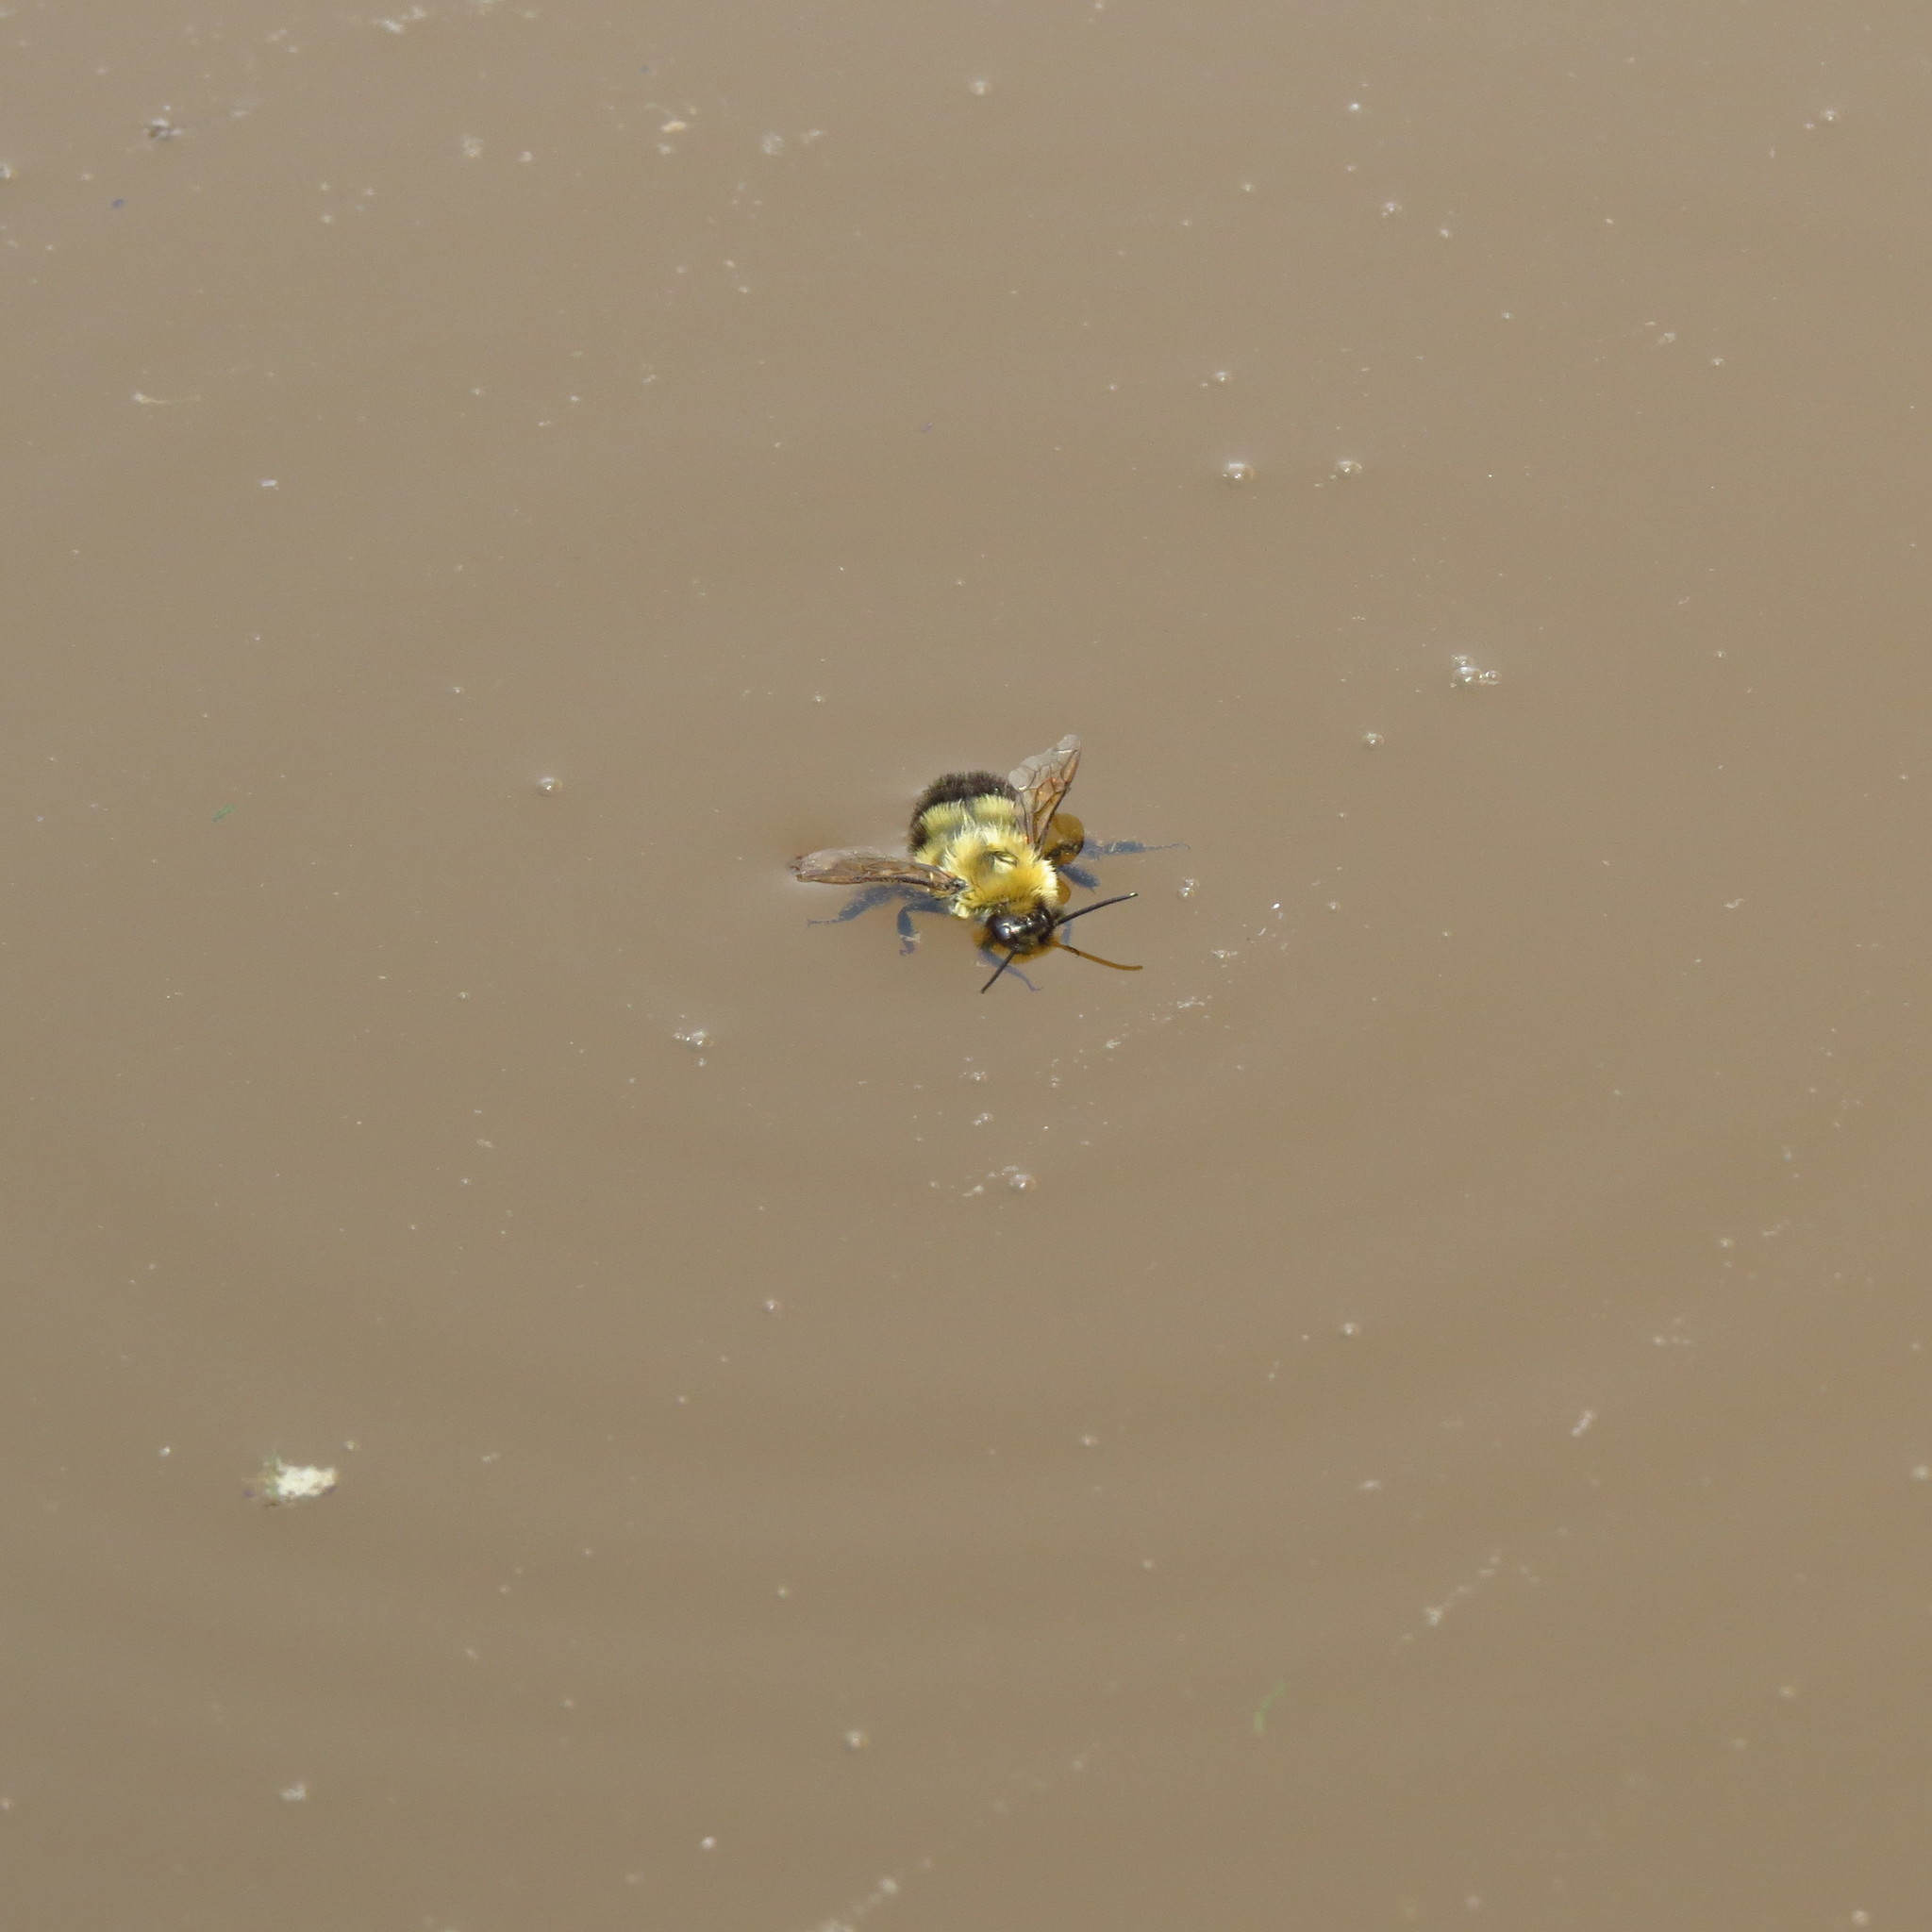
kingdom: Animalia
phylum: Arthropoda
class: Insecta
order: Hymenoptera
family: Apidae
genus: Bombus
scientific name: Bombus bimaculatus
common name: Two-spotted bumble bee
